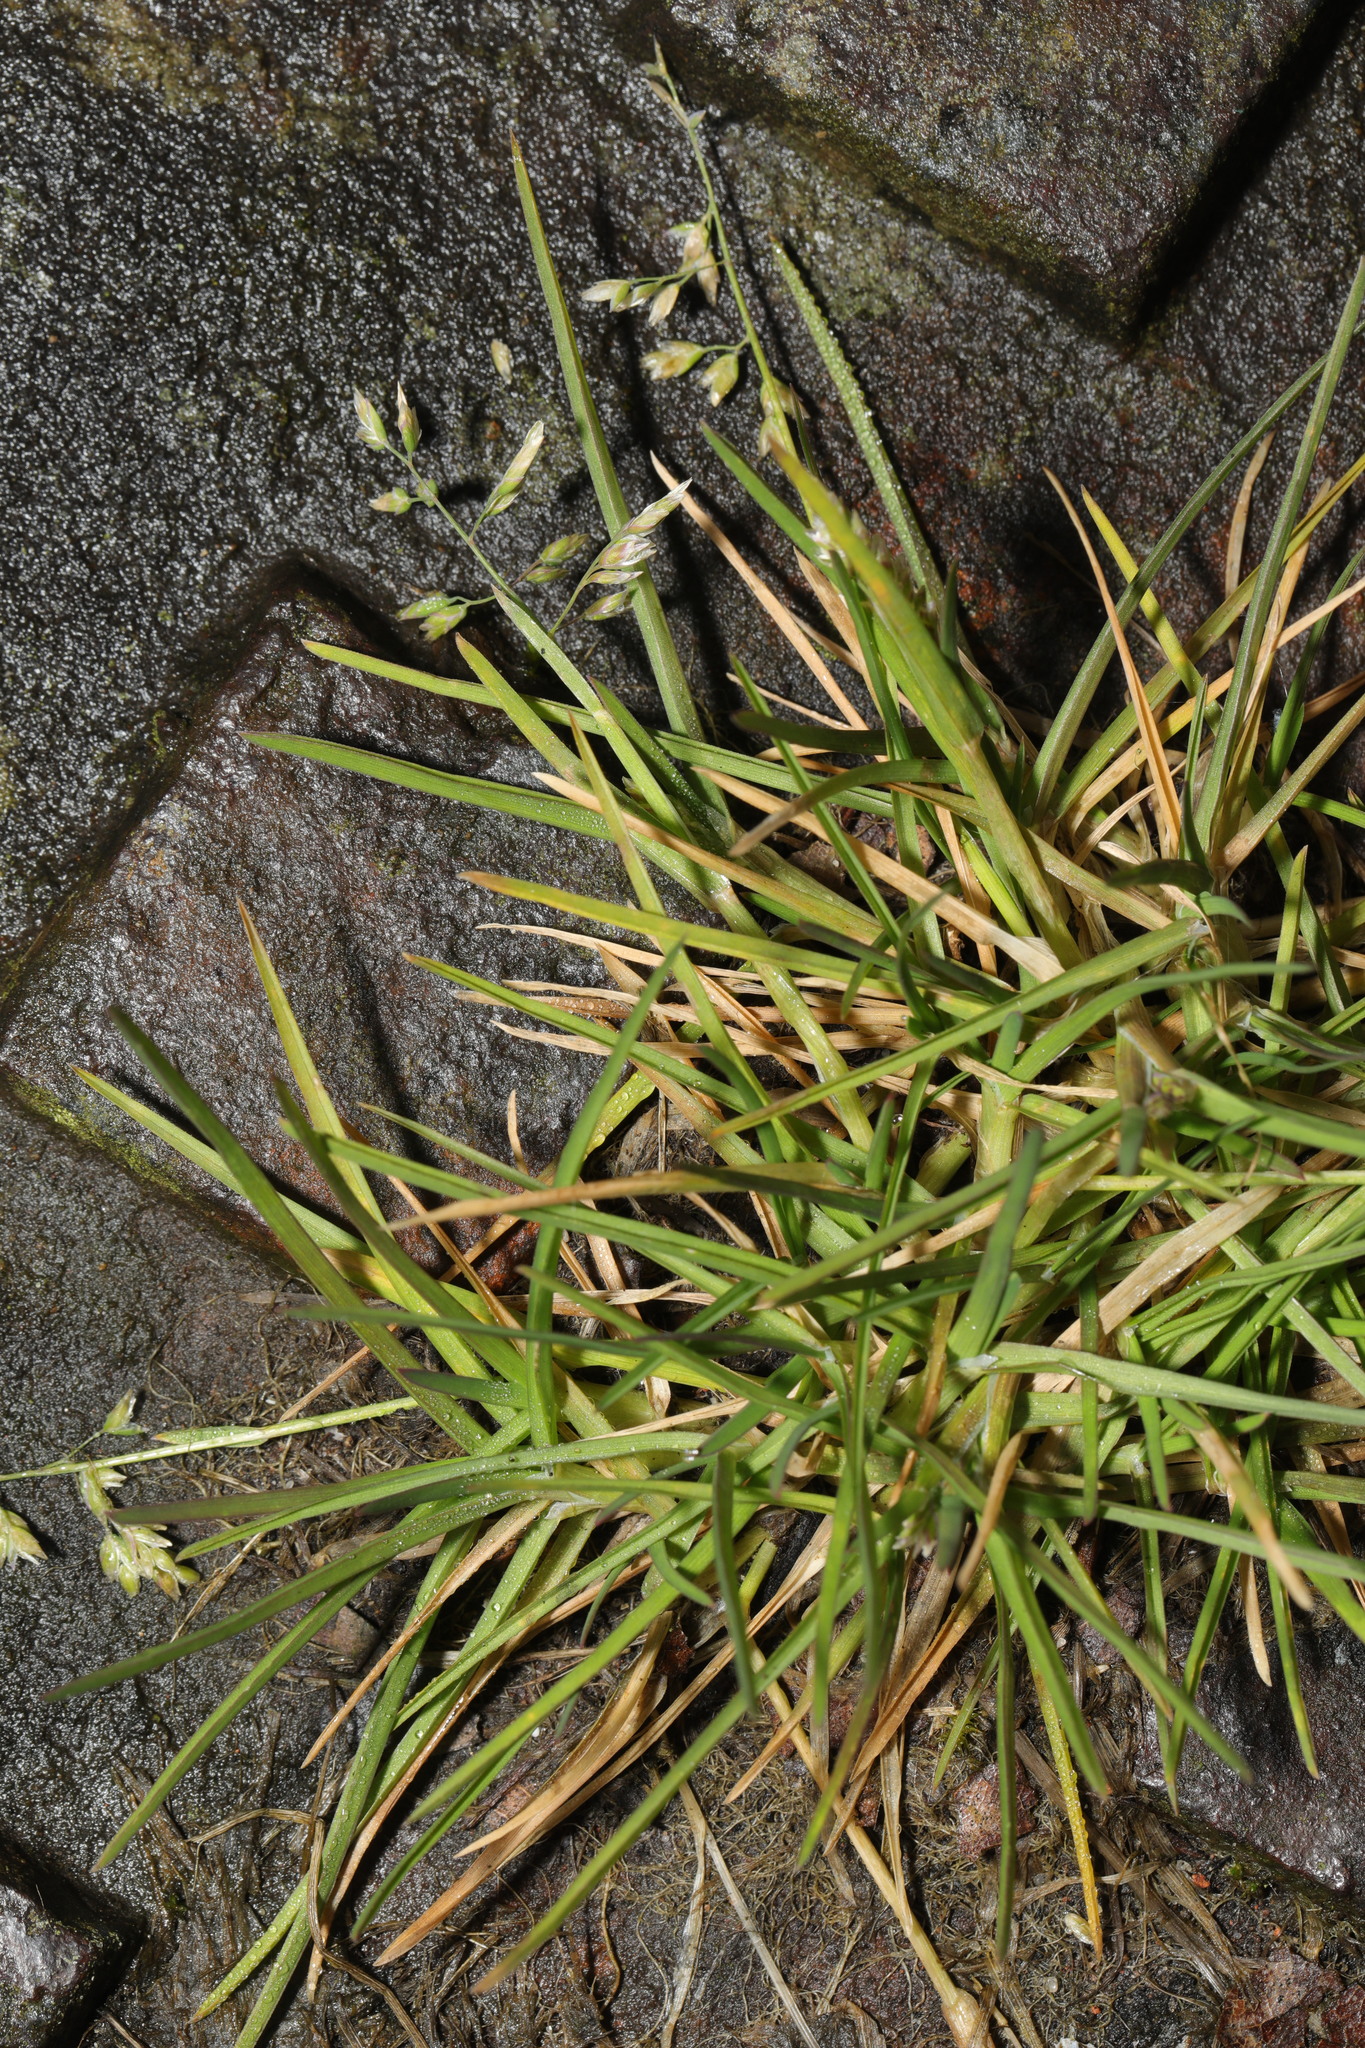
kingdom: Plantae
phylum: Tracheophyta
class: Liliopsida
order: Poales
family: Poaceae
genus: Poa
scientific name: Poa annua
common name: Annual bluegrass
